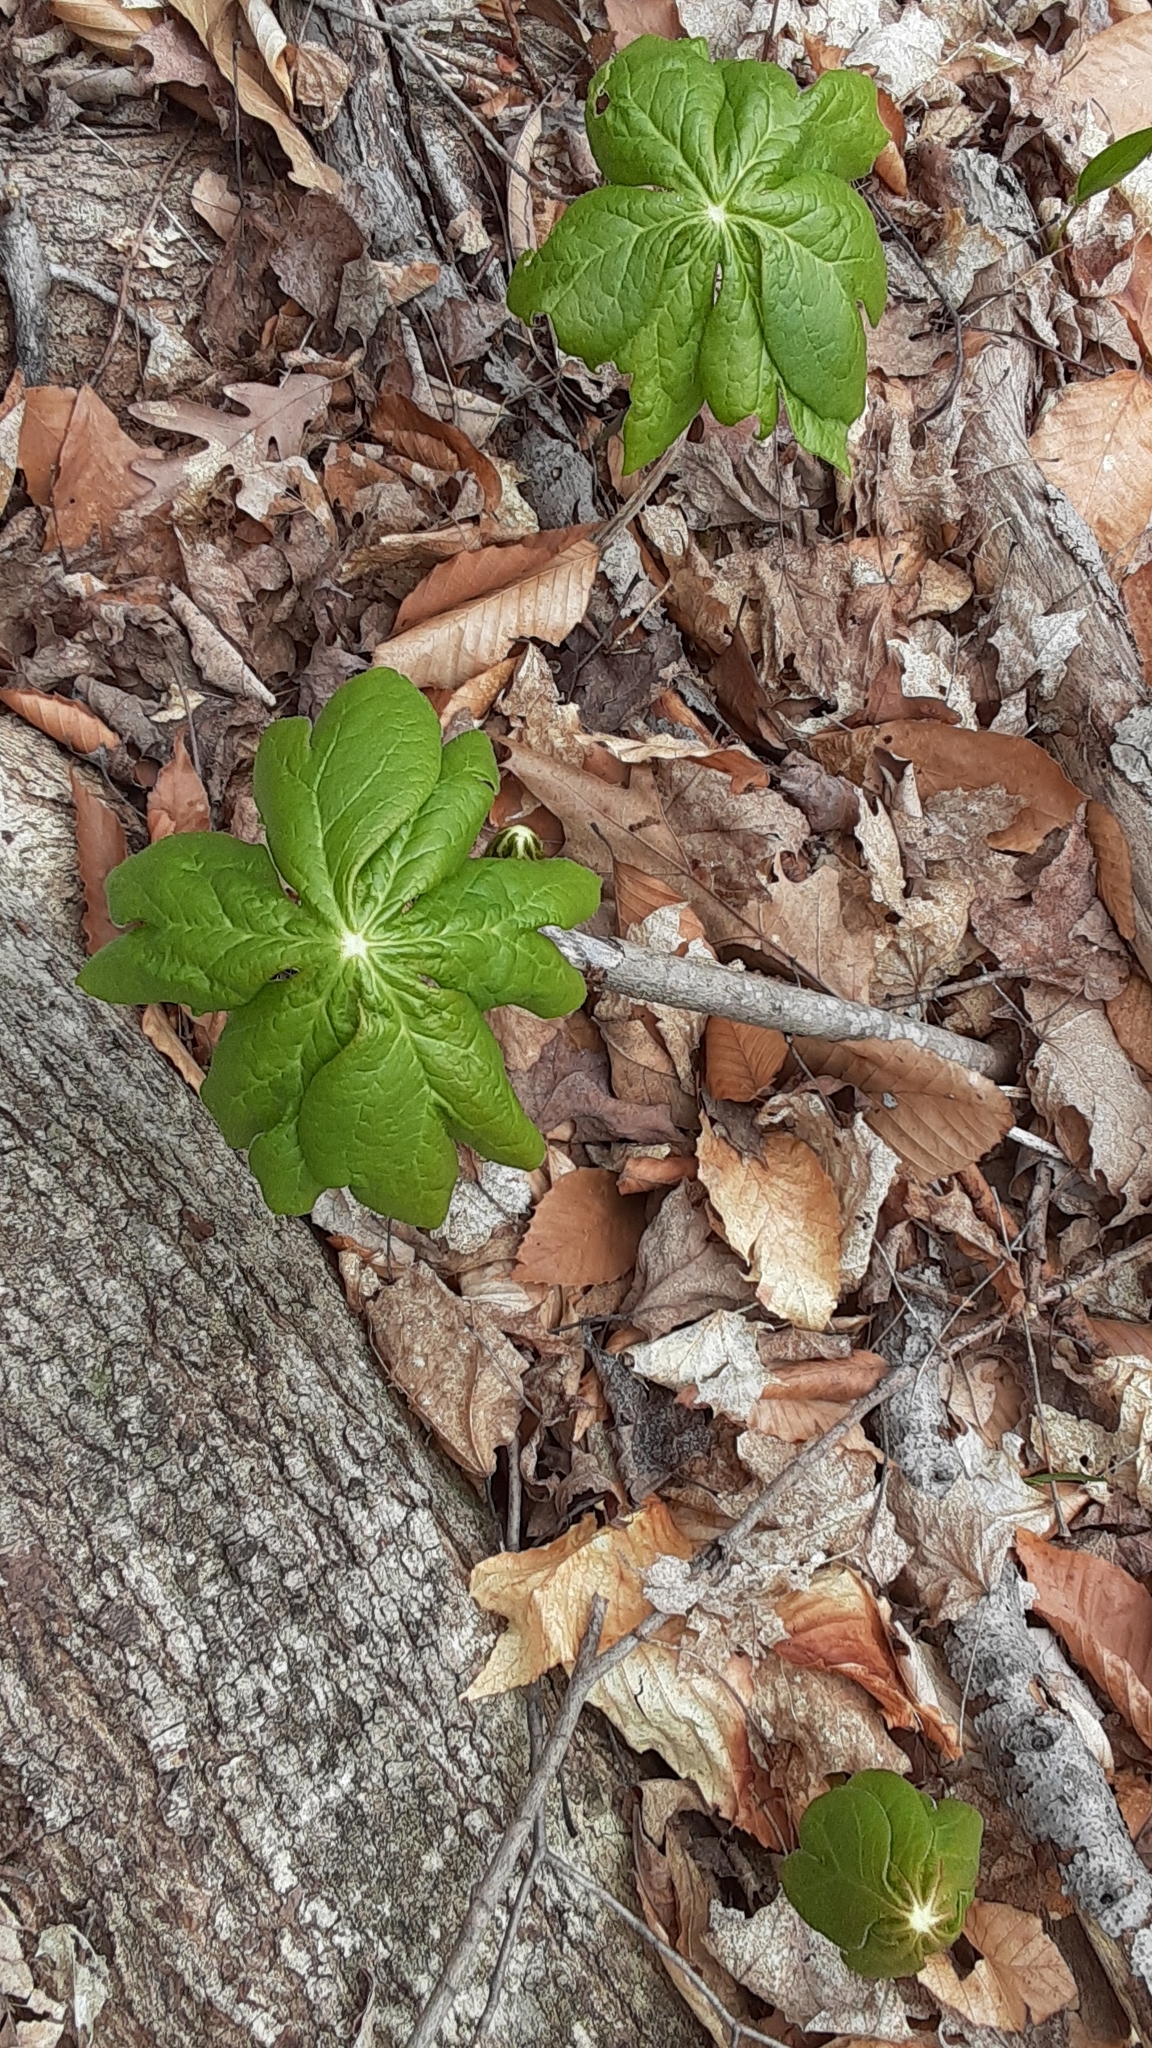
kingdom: Plantae
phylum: Tracheophyta
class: Magnoliopsida
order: Ranunculales
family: Berberidaceae
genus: Podophyllum
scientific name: Podophyllum peltatum
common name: Wild mandrake
